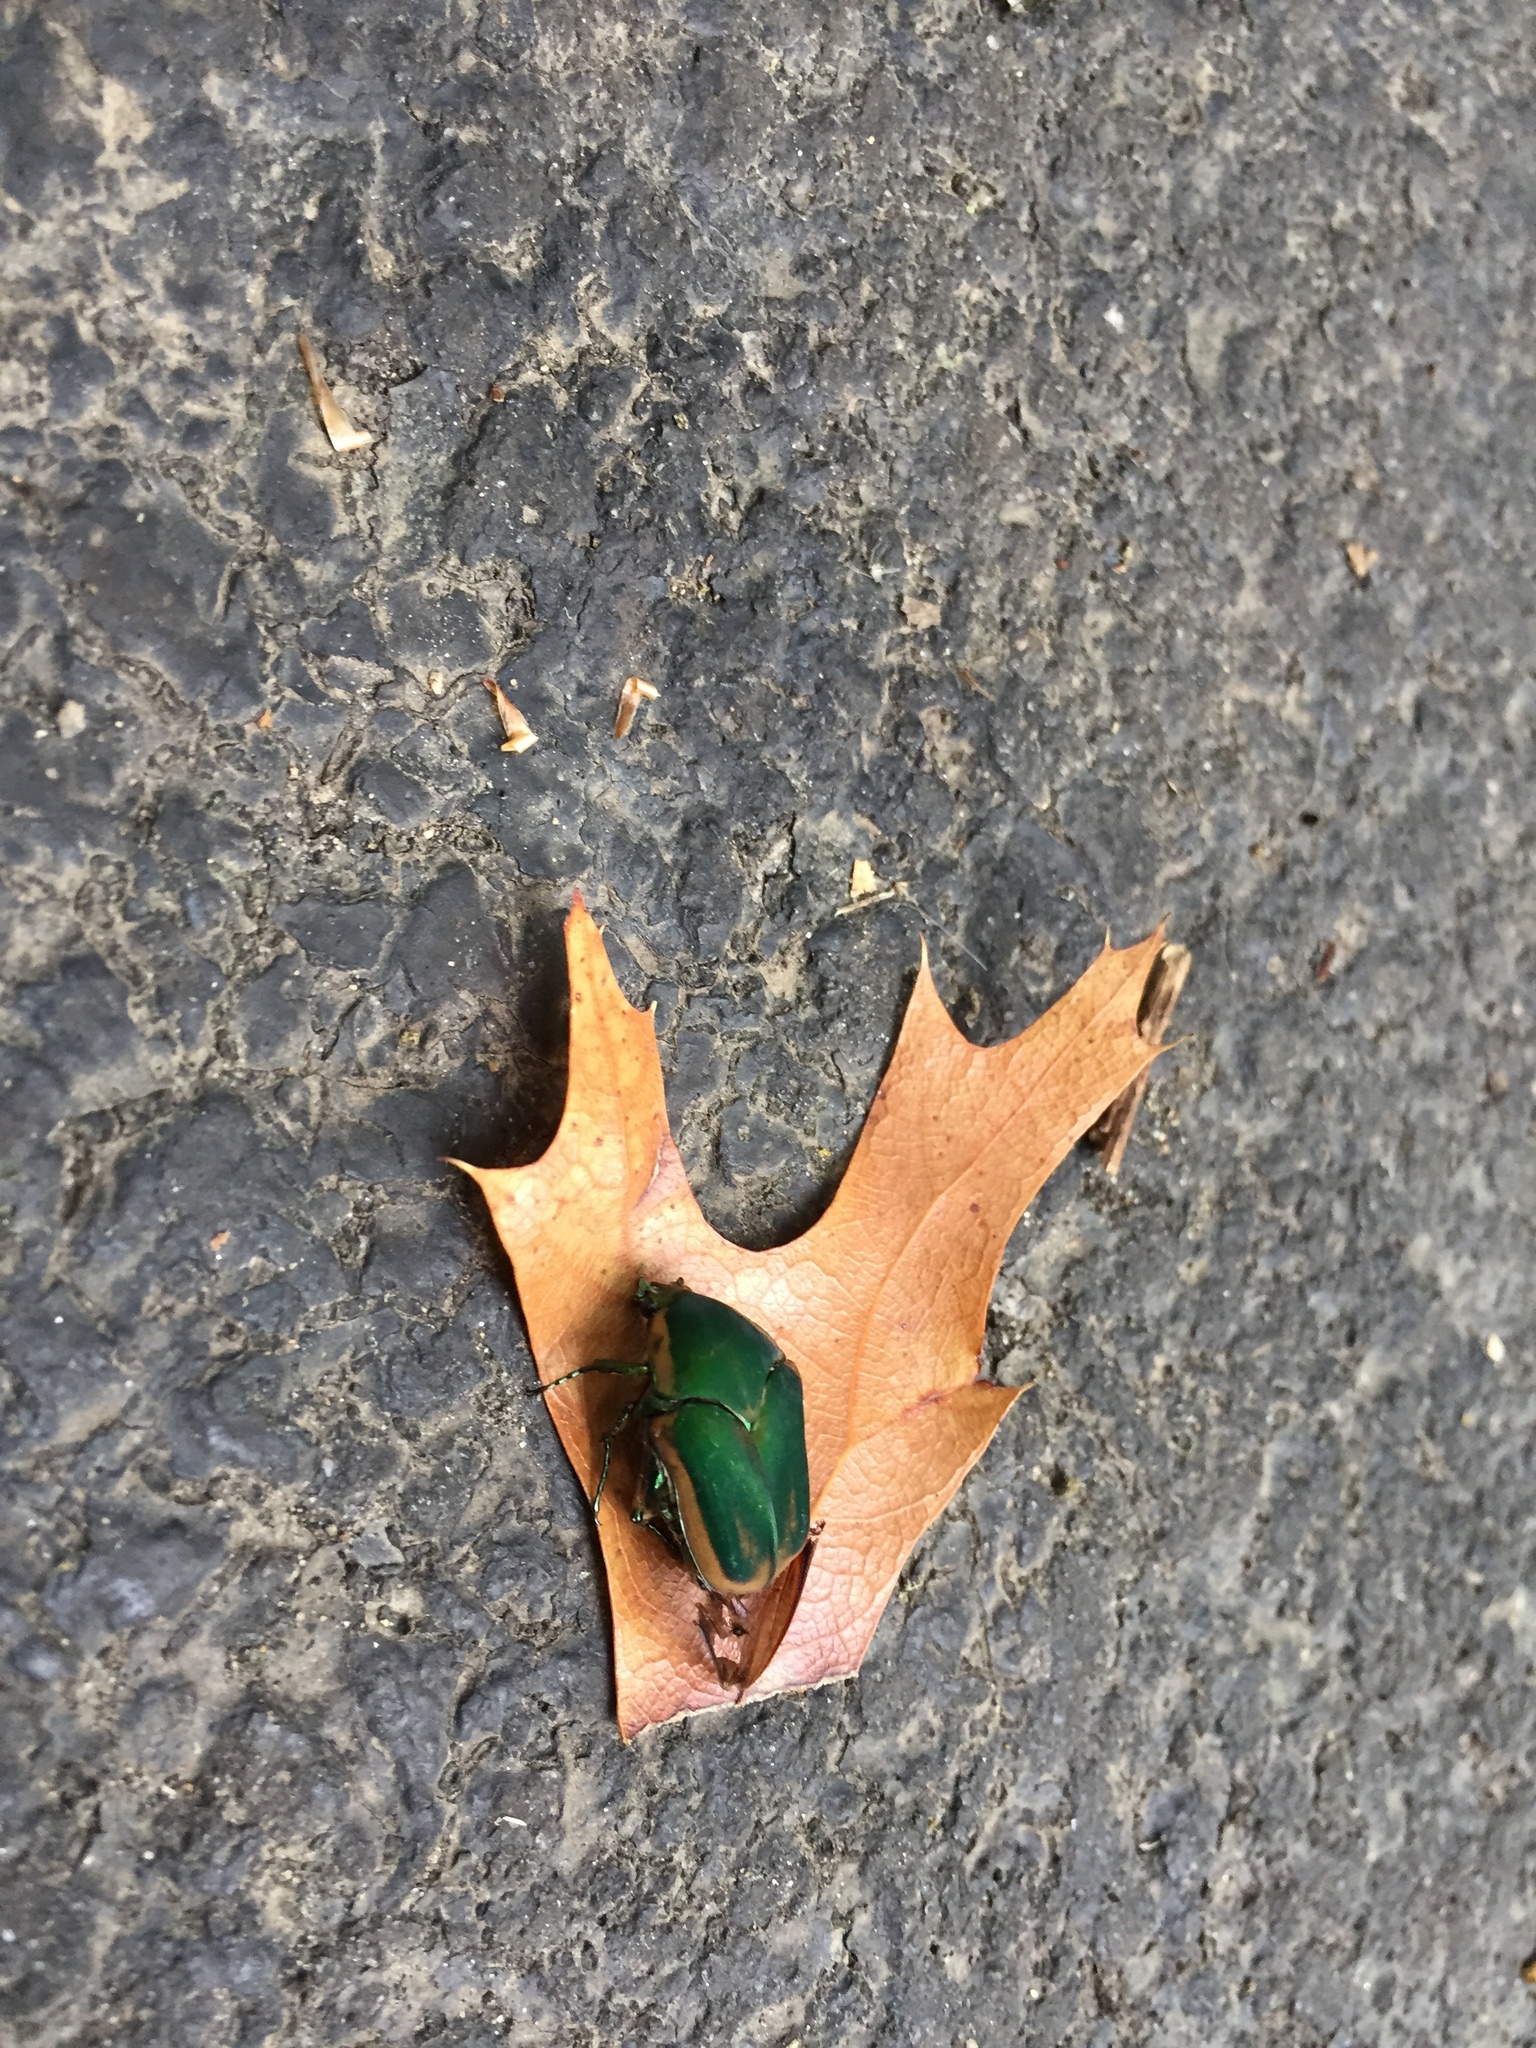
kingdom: Animalia
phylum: Arthropoda
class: Insecta
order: Coleoptera
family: Scarabaeidae
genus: Cotinis
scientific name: Cotinis nitida
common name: Common green june beetle
